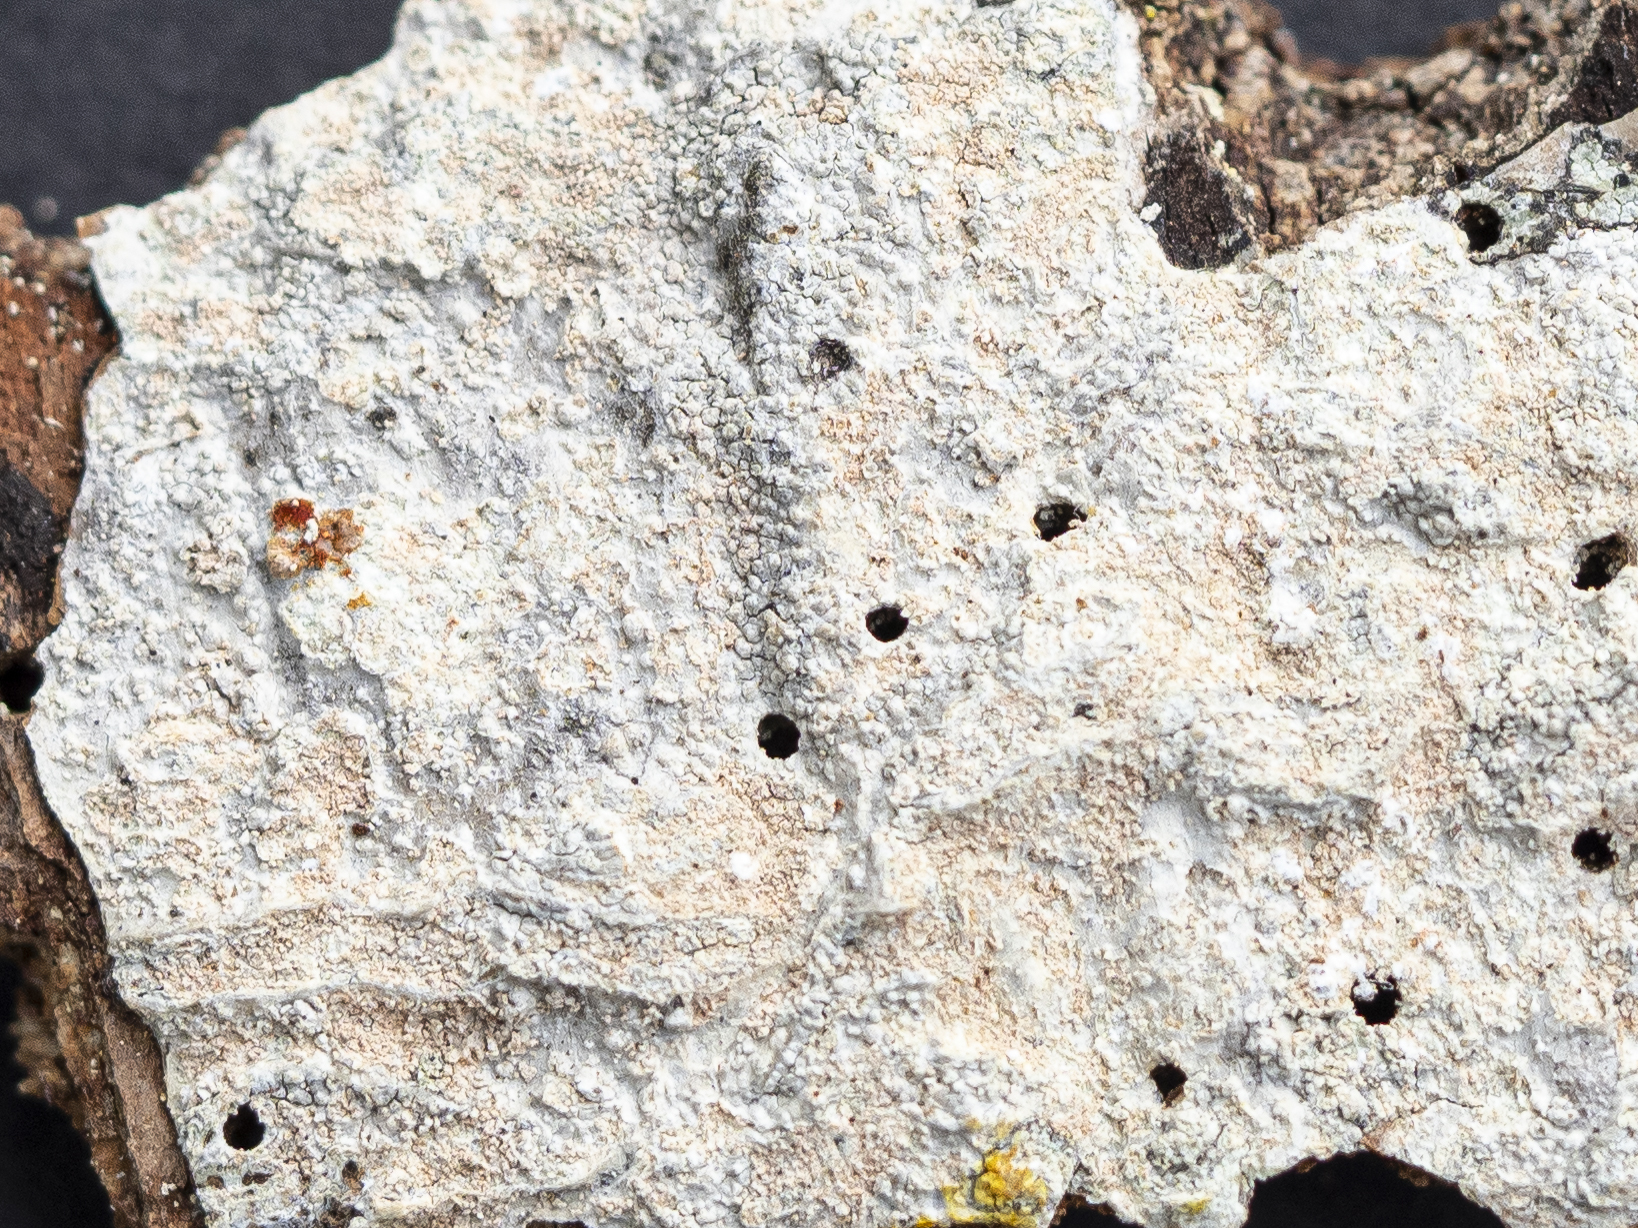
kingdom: Fungi
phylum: Ascomycota
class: Lecanoromycetes
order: Ostropales
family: Phlyctidaceae
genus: Phlyctis
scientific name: Phlyctis argena
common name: Whitewash lichen
